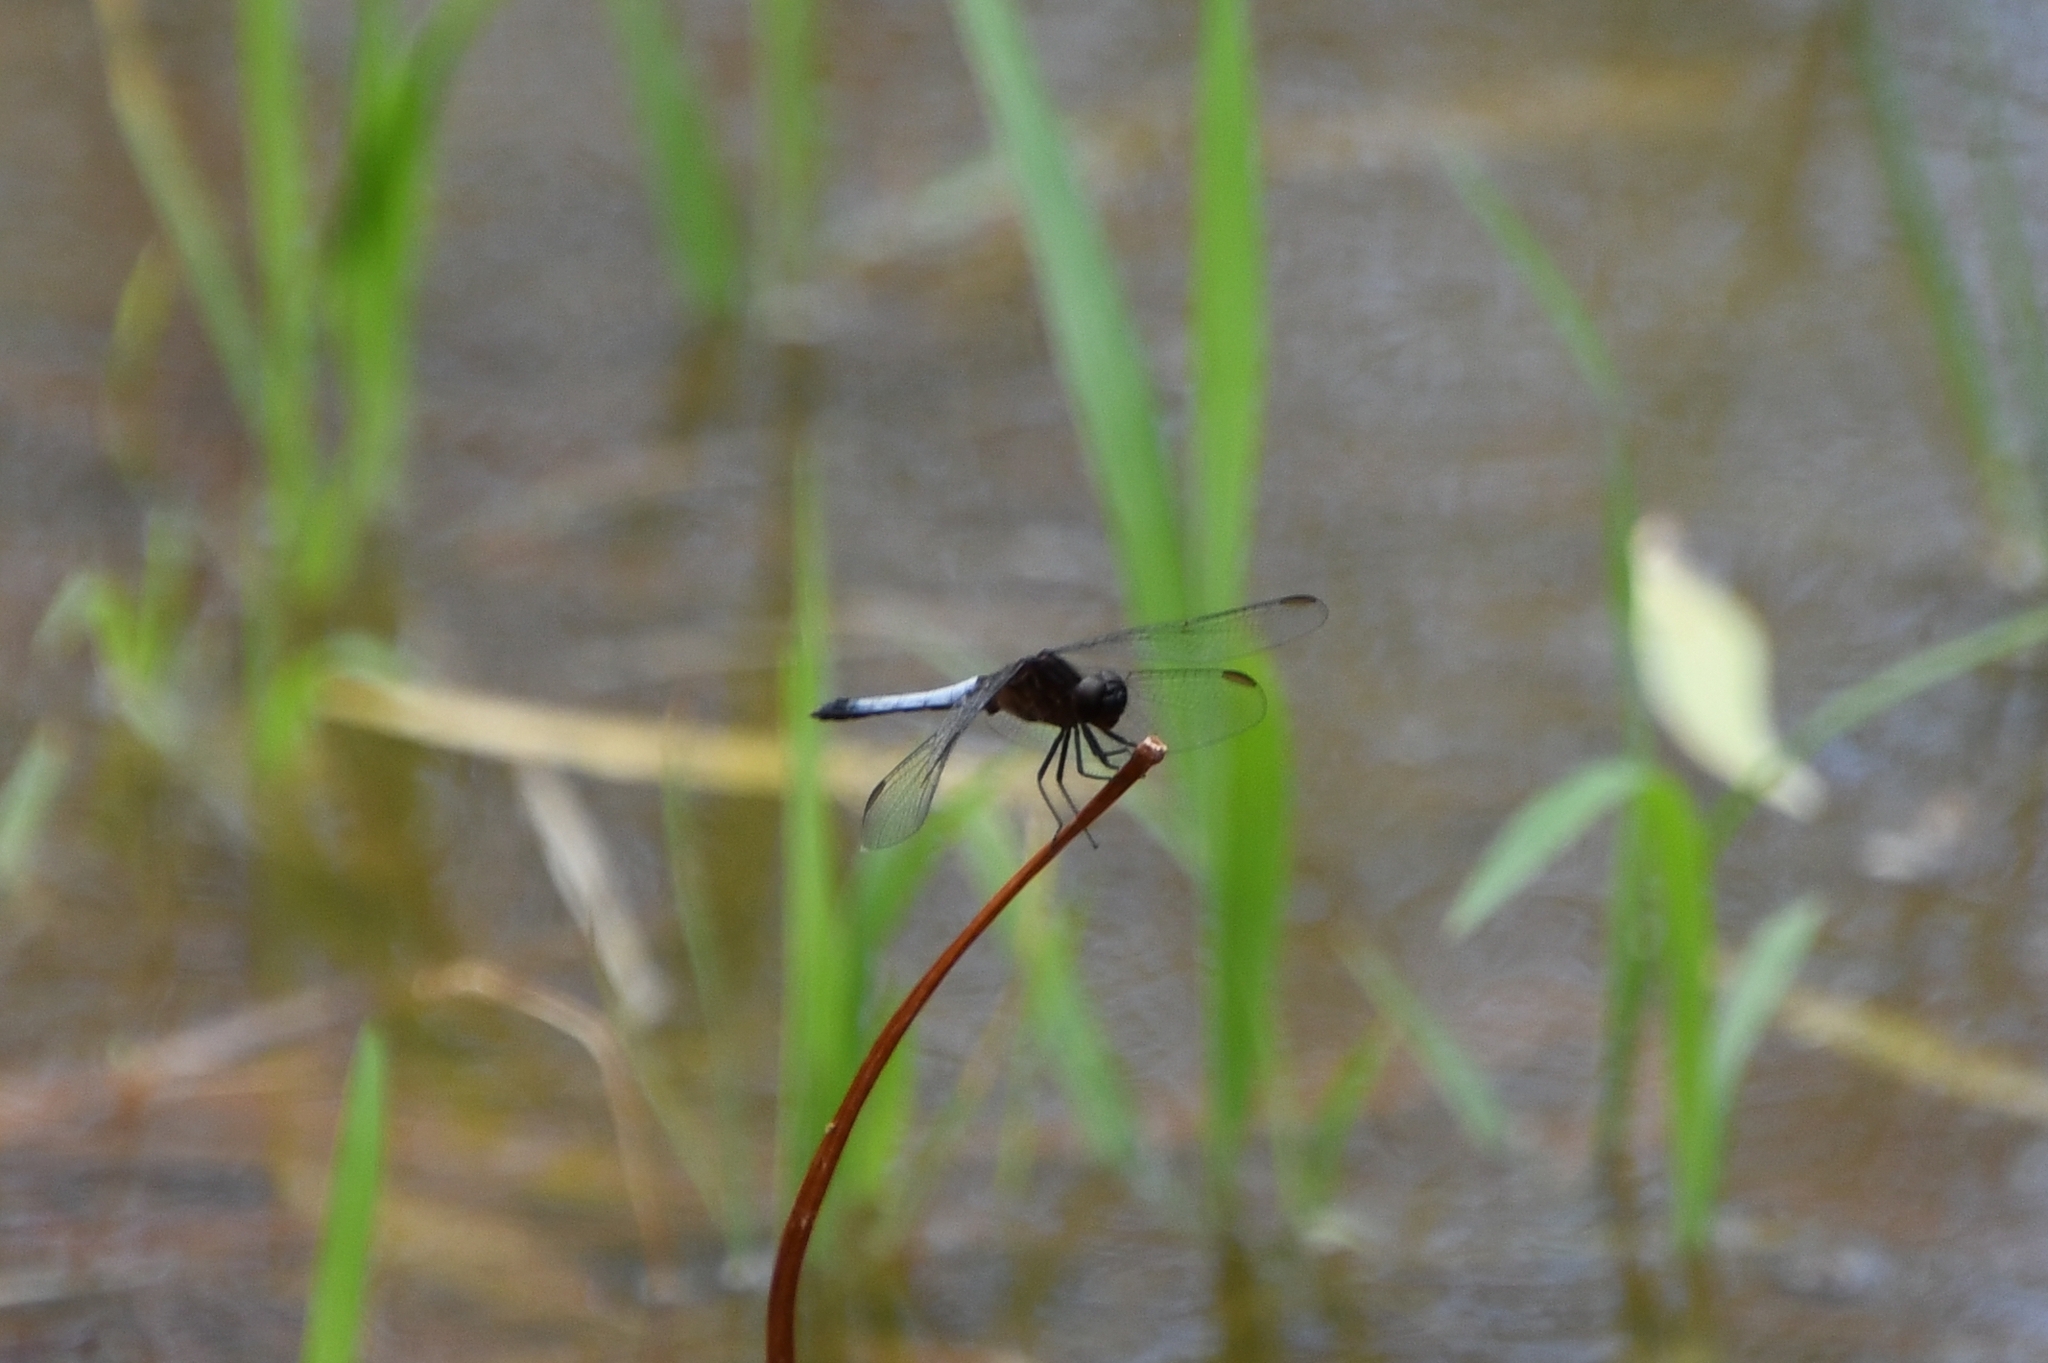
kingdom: Animalia
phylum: Arthropoda
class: Insecta
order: Odonata
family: Libellulidae
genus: Erythrodiplax
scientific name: Erythrodiplax basifusca
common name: Plateau dragonlet
